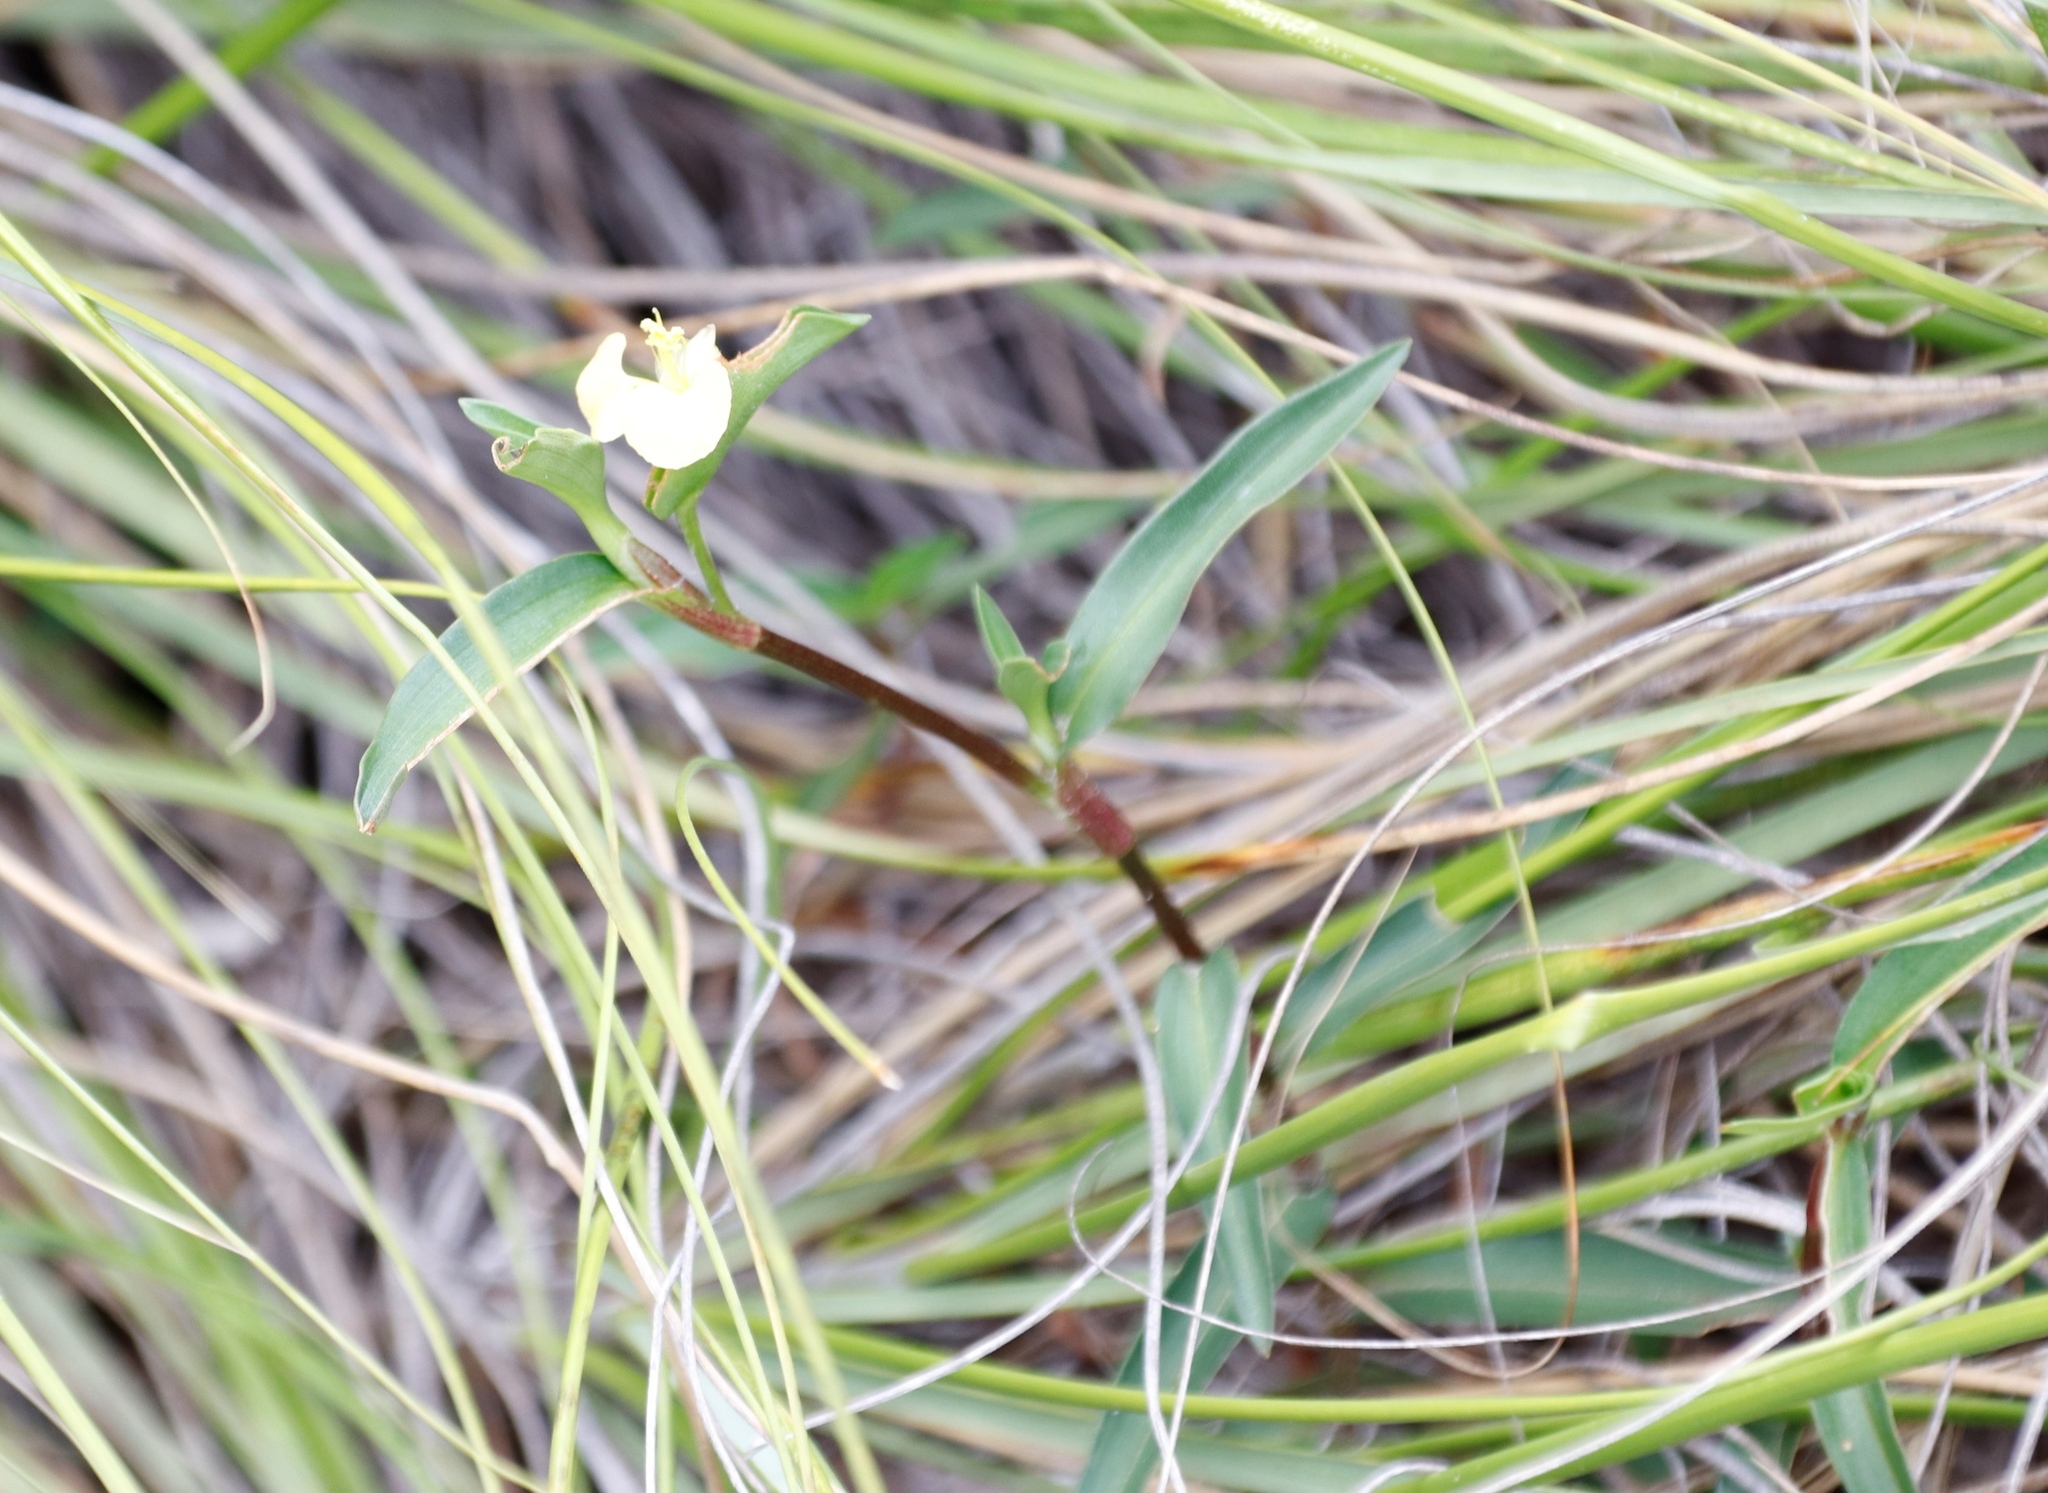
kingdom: Plantae
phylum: Tracheophyta
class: Liliopsida
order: Commelinales
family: Commelinaceae
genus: Commelina
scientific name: Commelina africana
